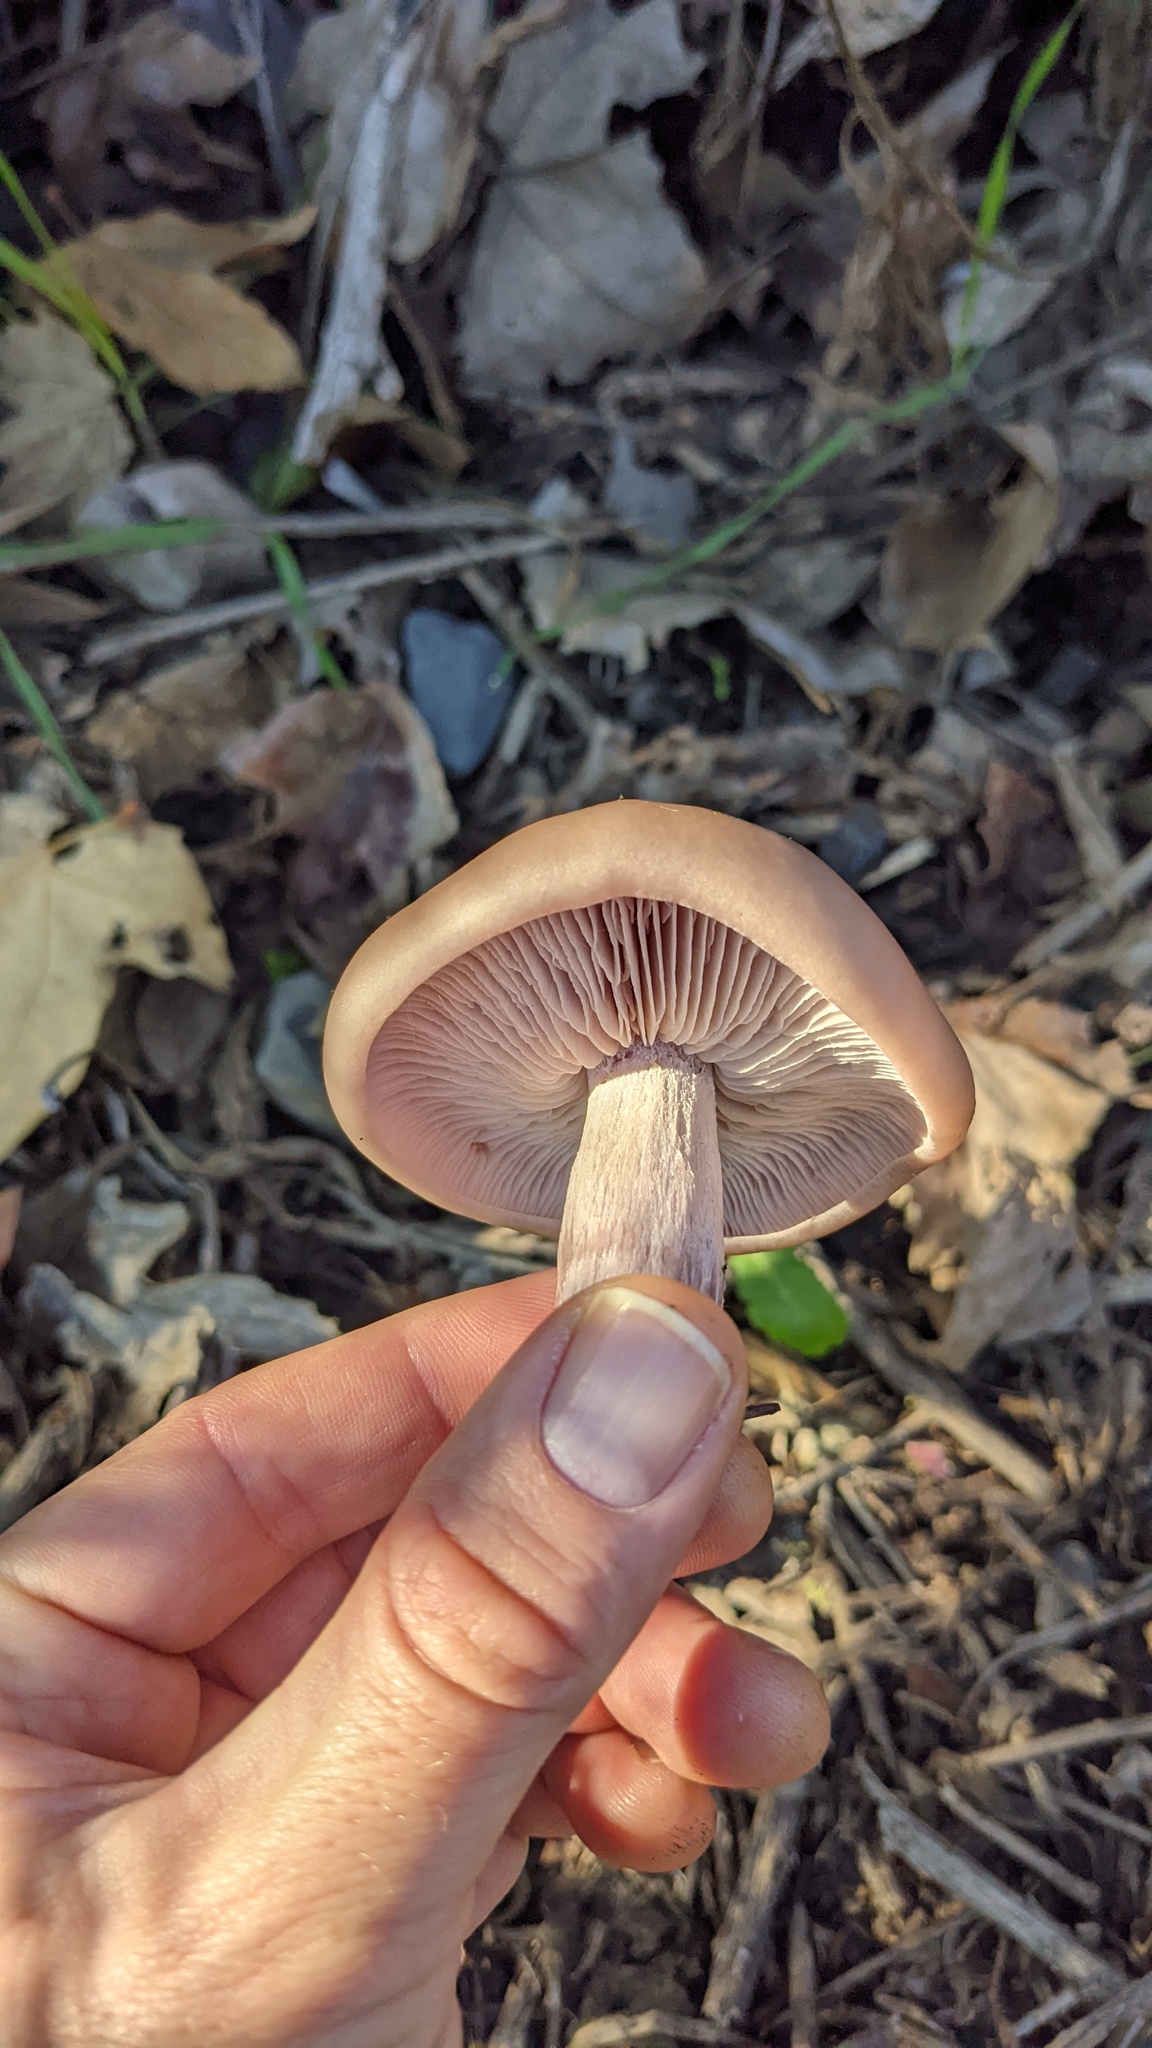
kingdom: Fungi
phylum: Basidiomycota
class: Agaricomycetes
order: Agaricales
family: Tricholomataceae
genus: Collybia
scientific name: Collybia
